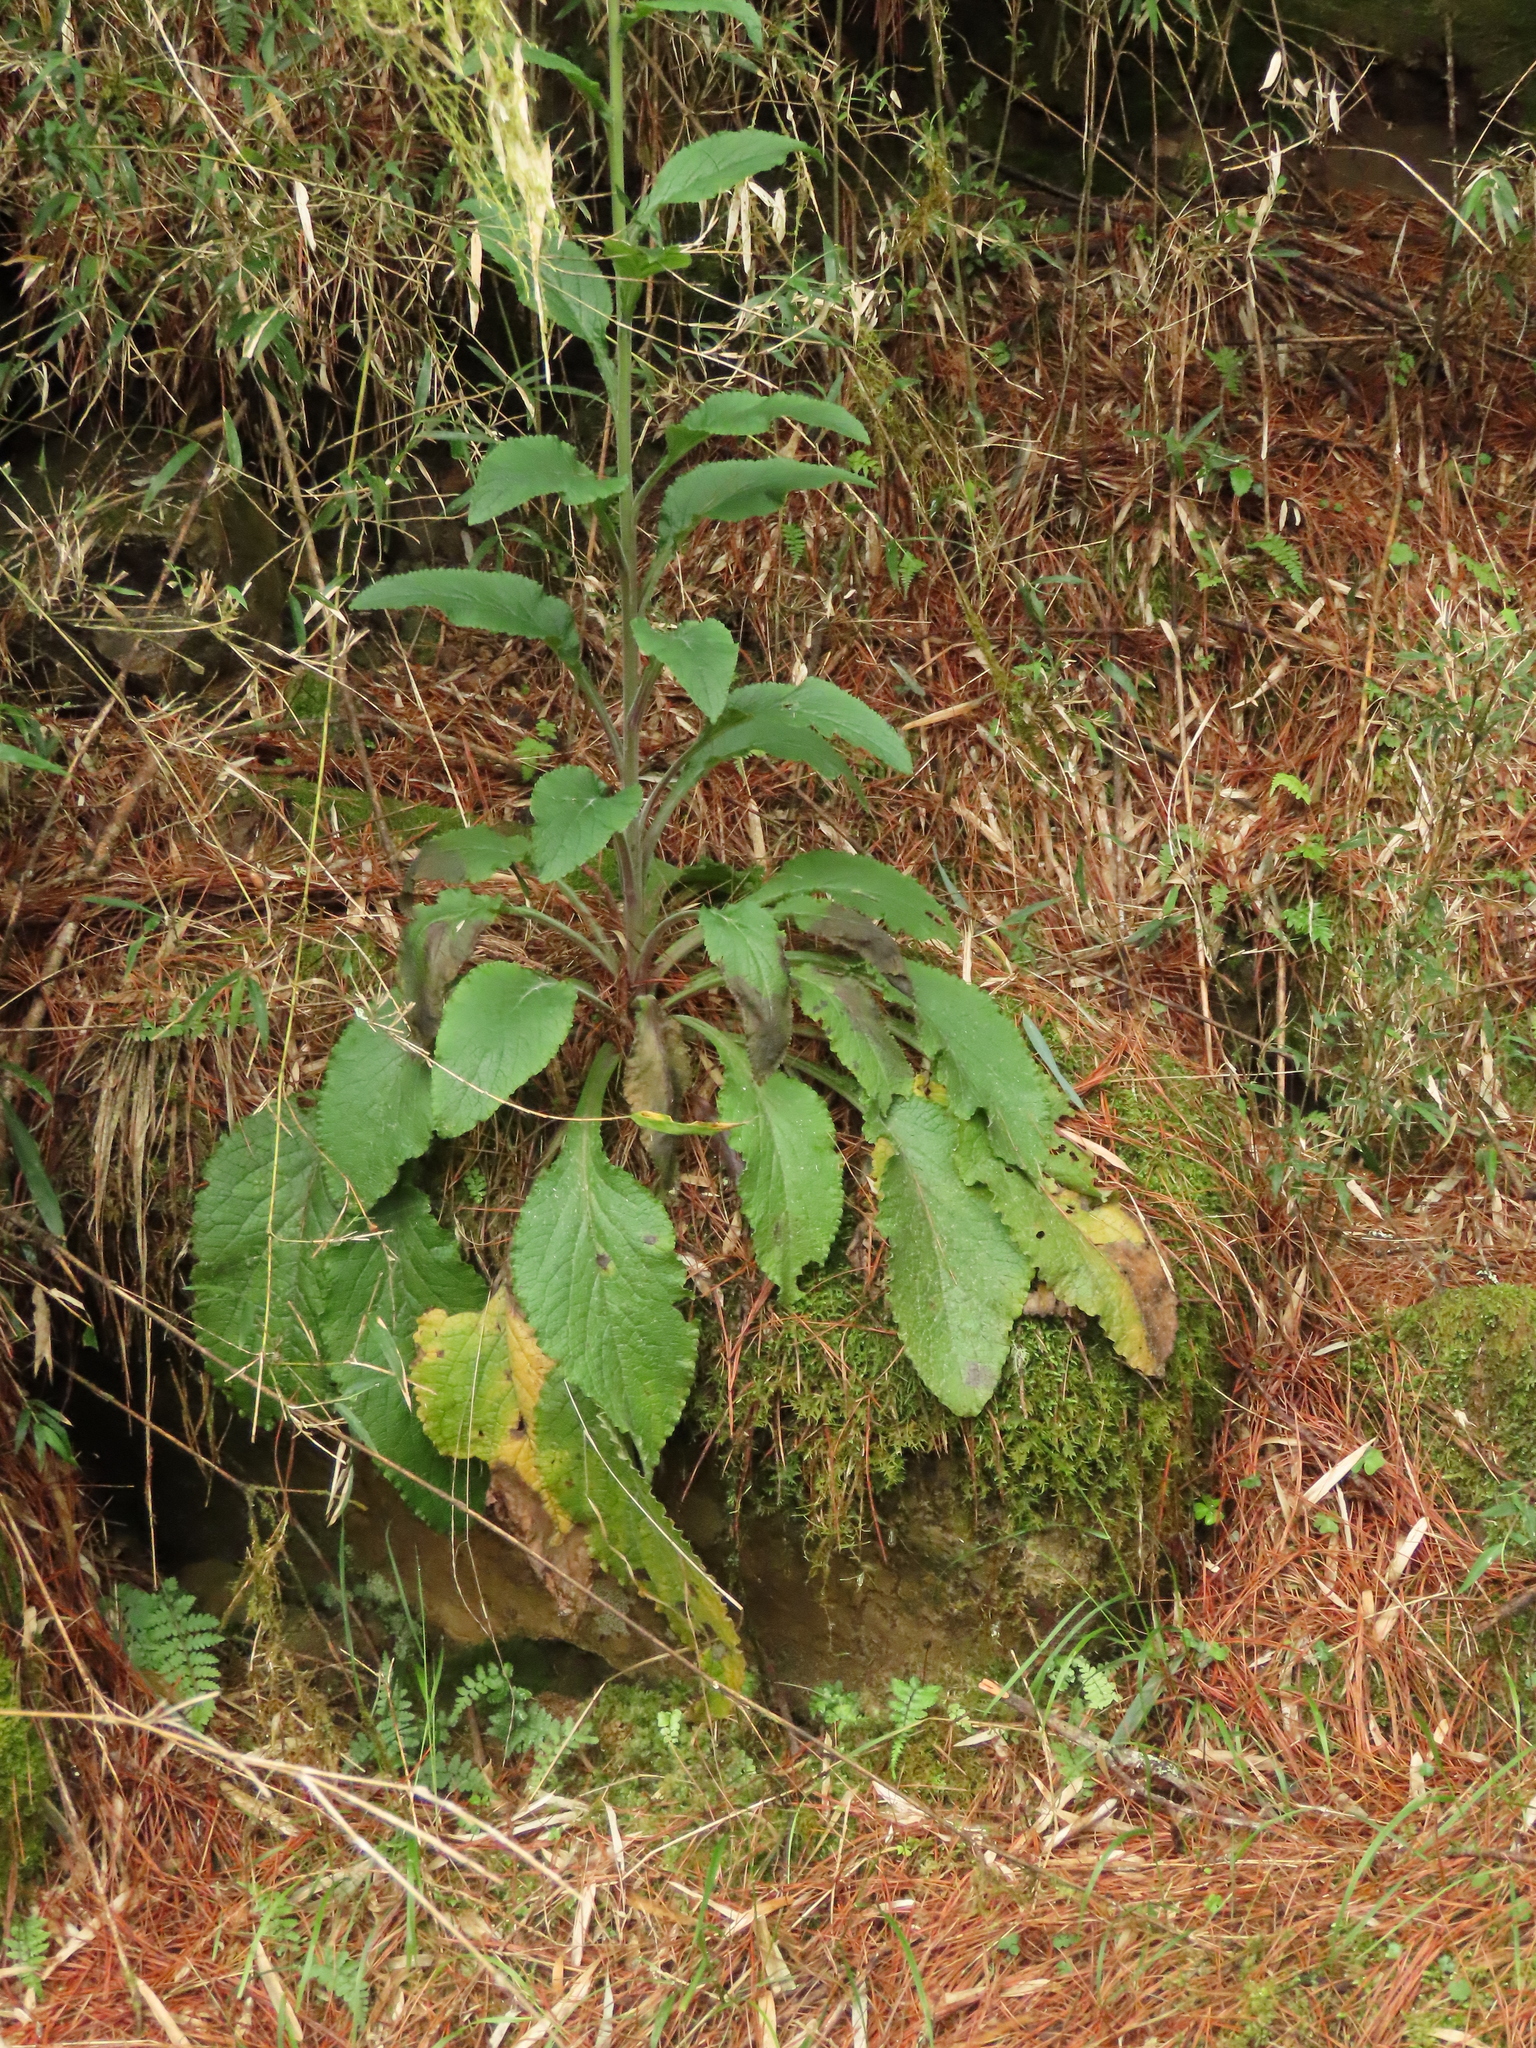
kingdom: Plantae
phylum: Tracheophyta
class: Magnoliopsida
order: Lamiales
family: Plantaginaceae
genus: Digitalis
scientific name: Digitalis purpurea
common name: Foxglove
